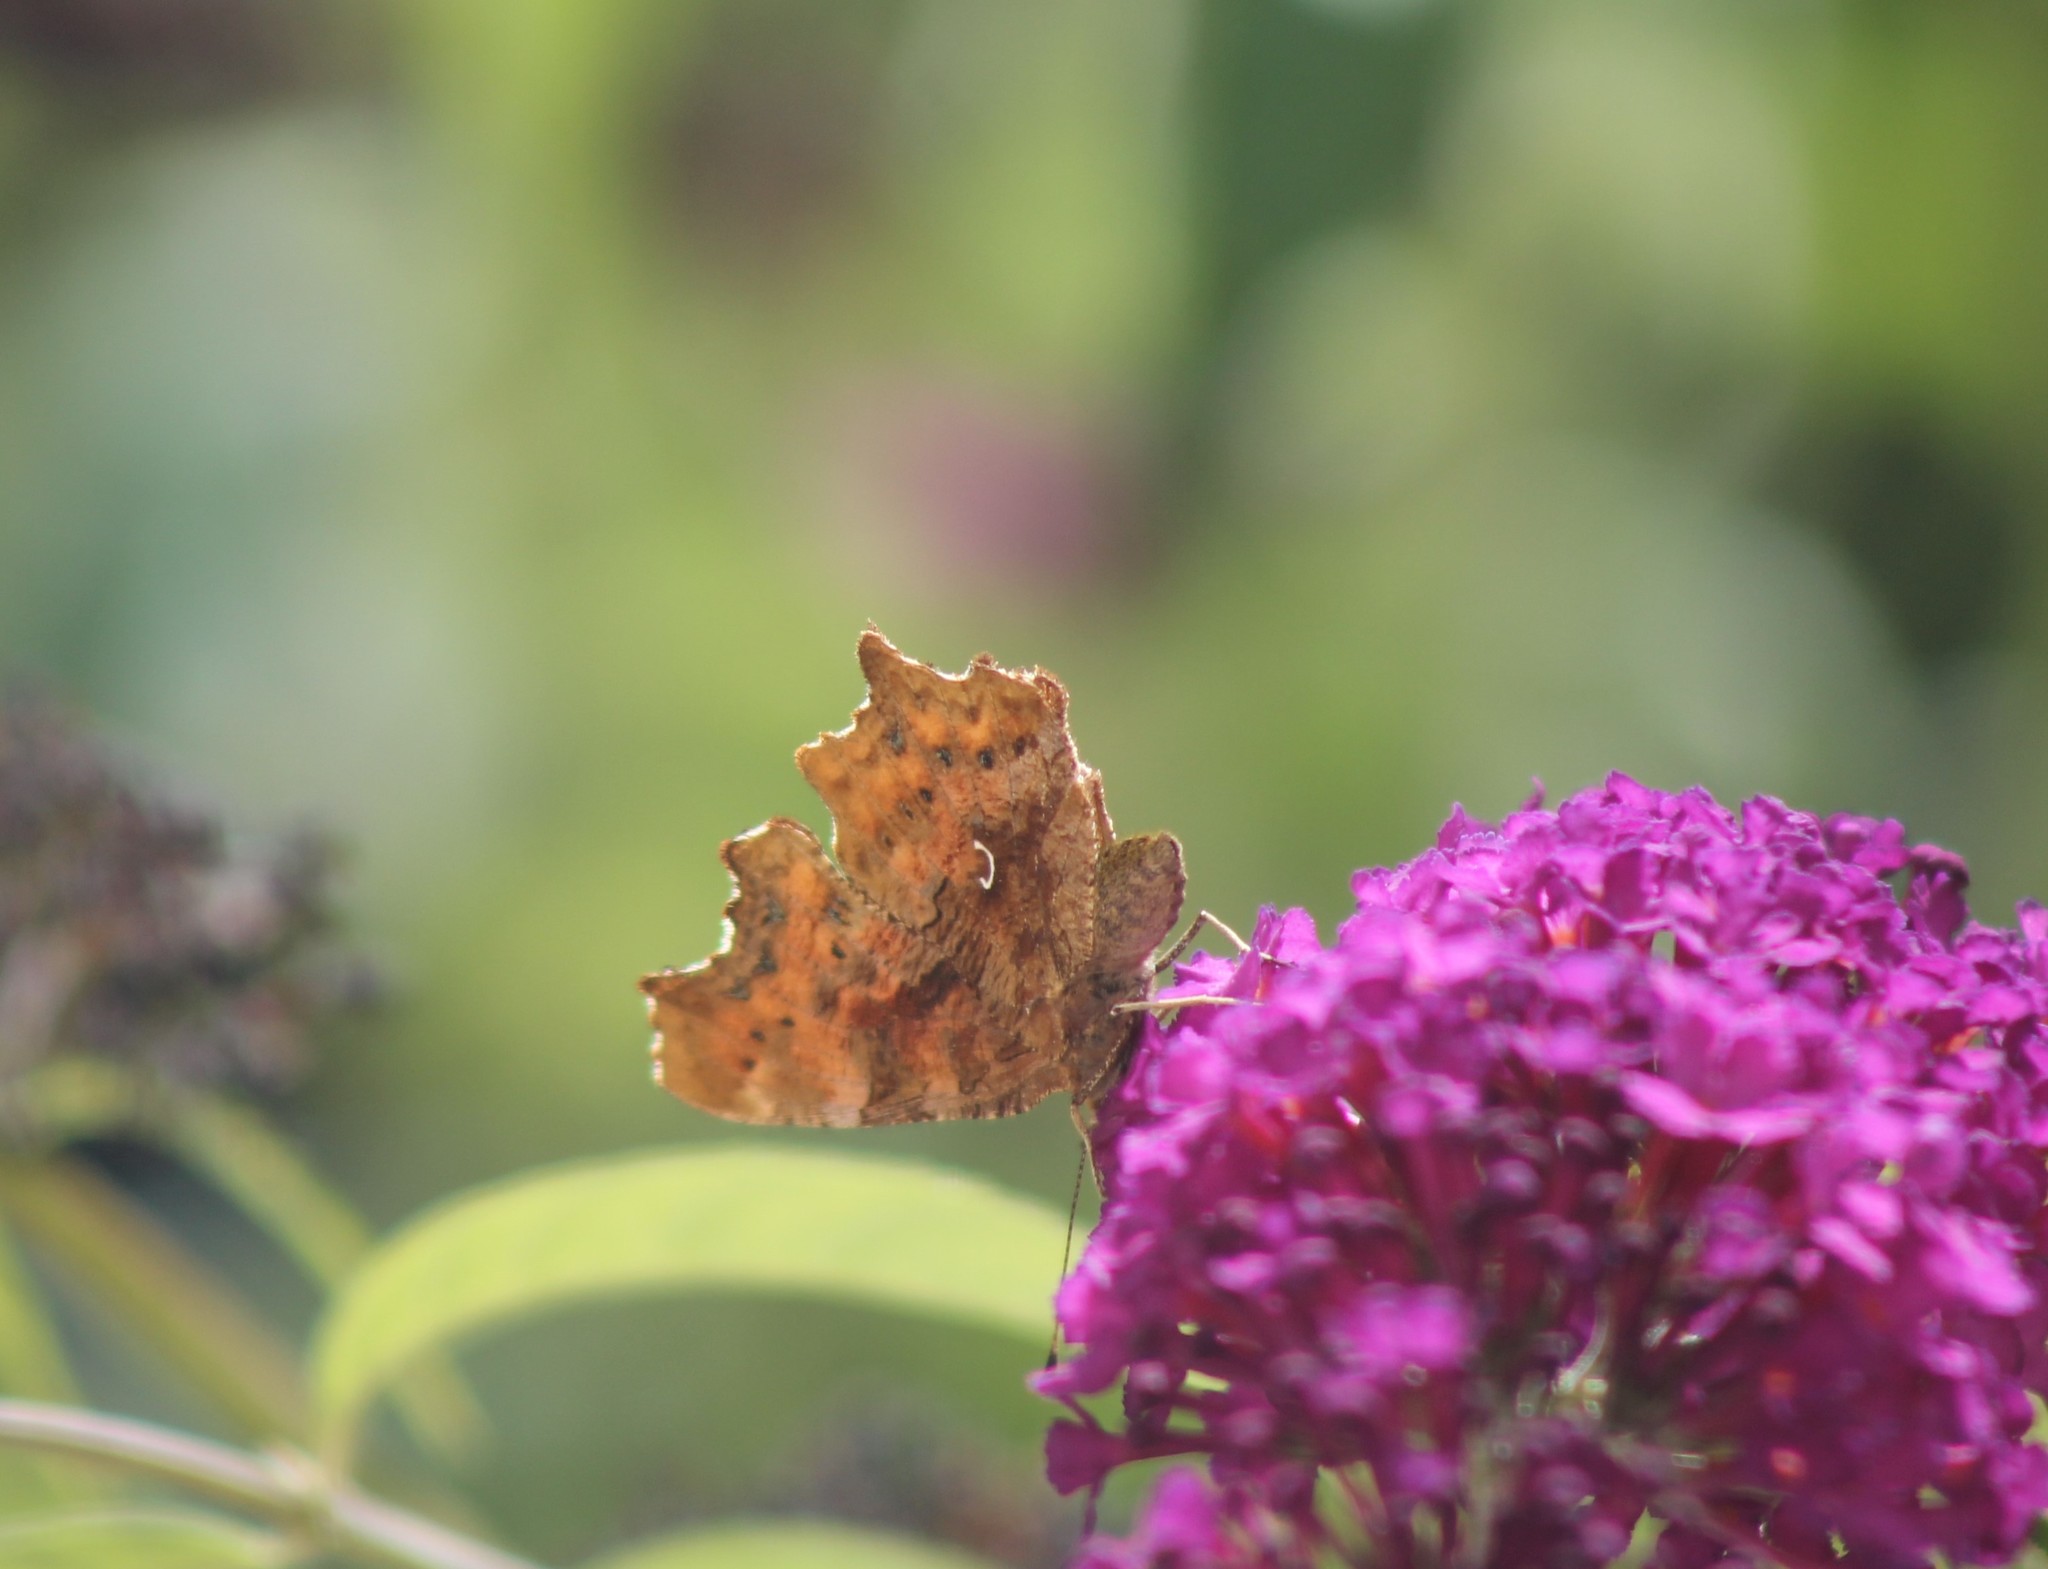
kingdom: Animalia
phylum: Arthropoda
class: Insecta
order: Lepidoptera
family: Nymphalidae
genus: Polygonia
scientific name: Polygonia c-album
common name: Comma
